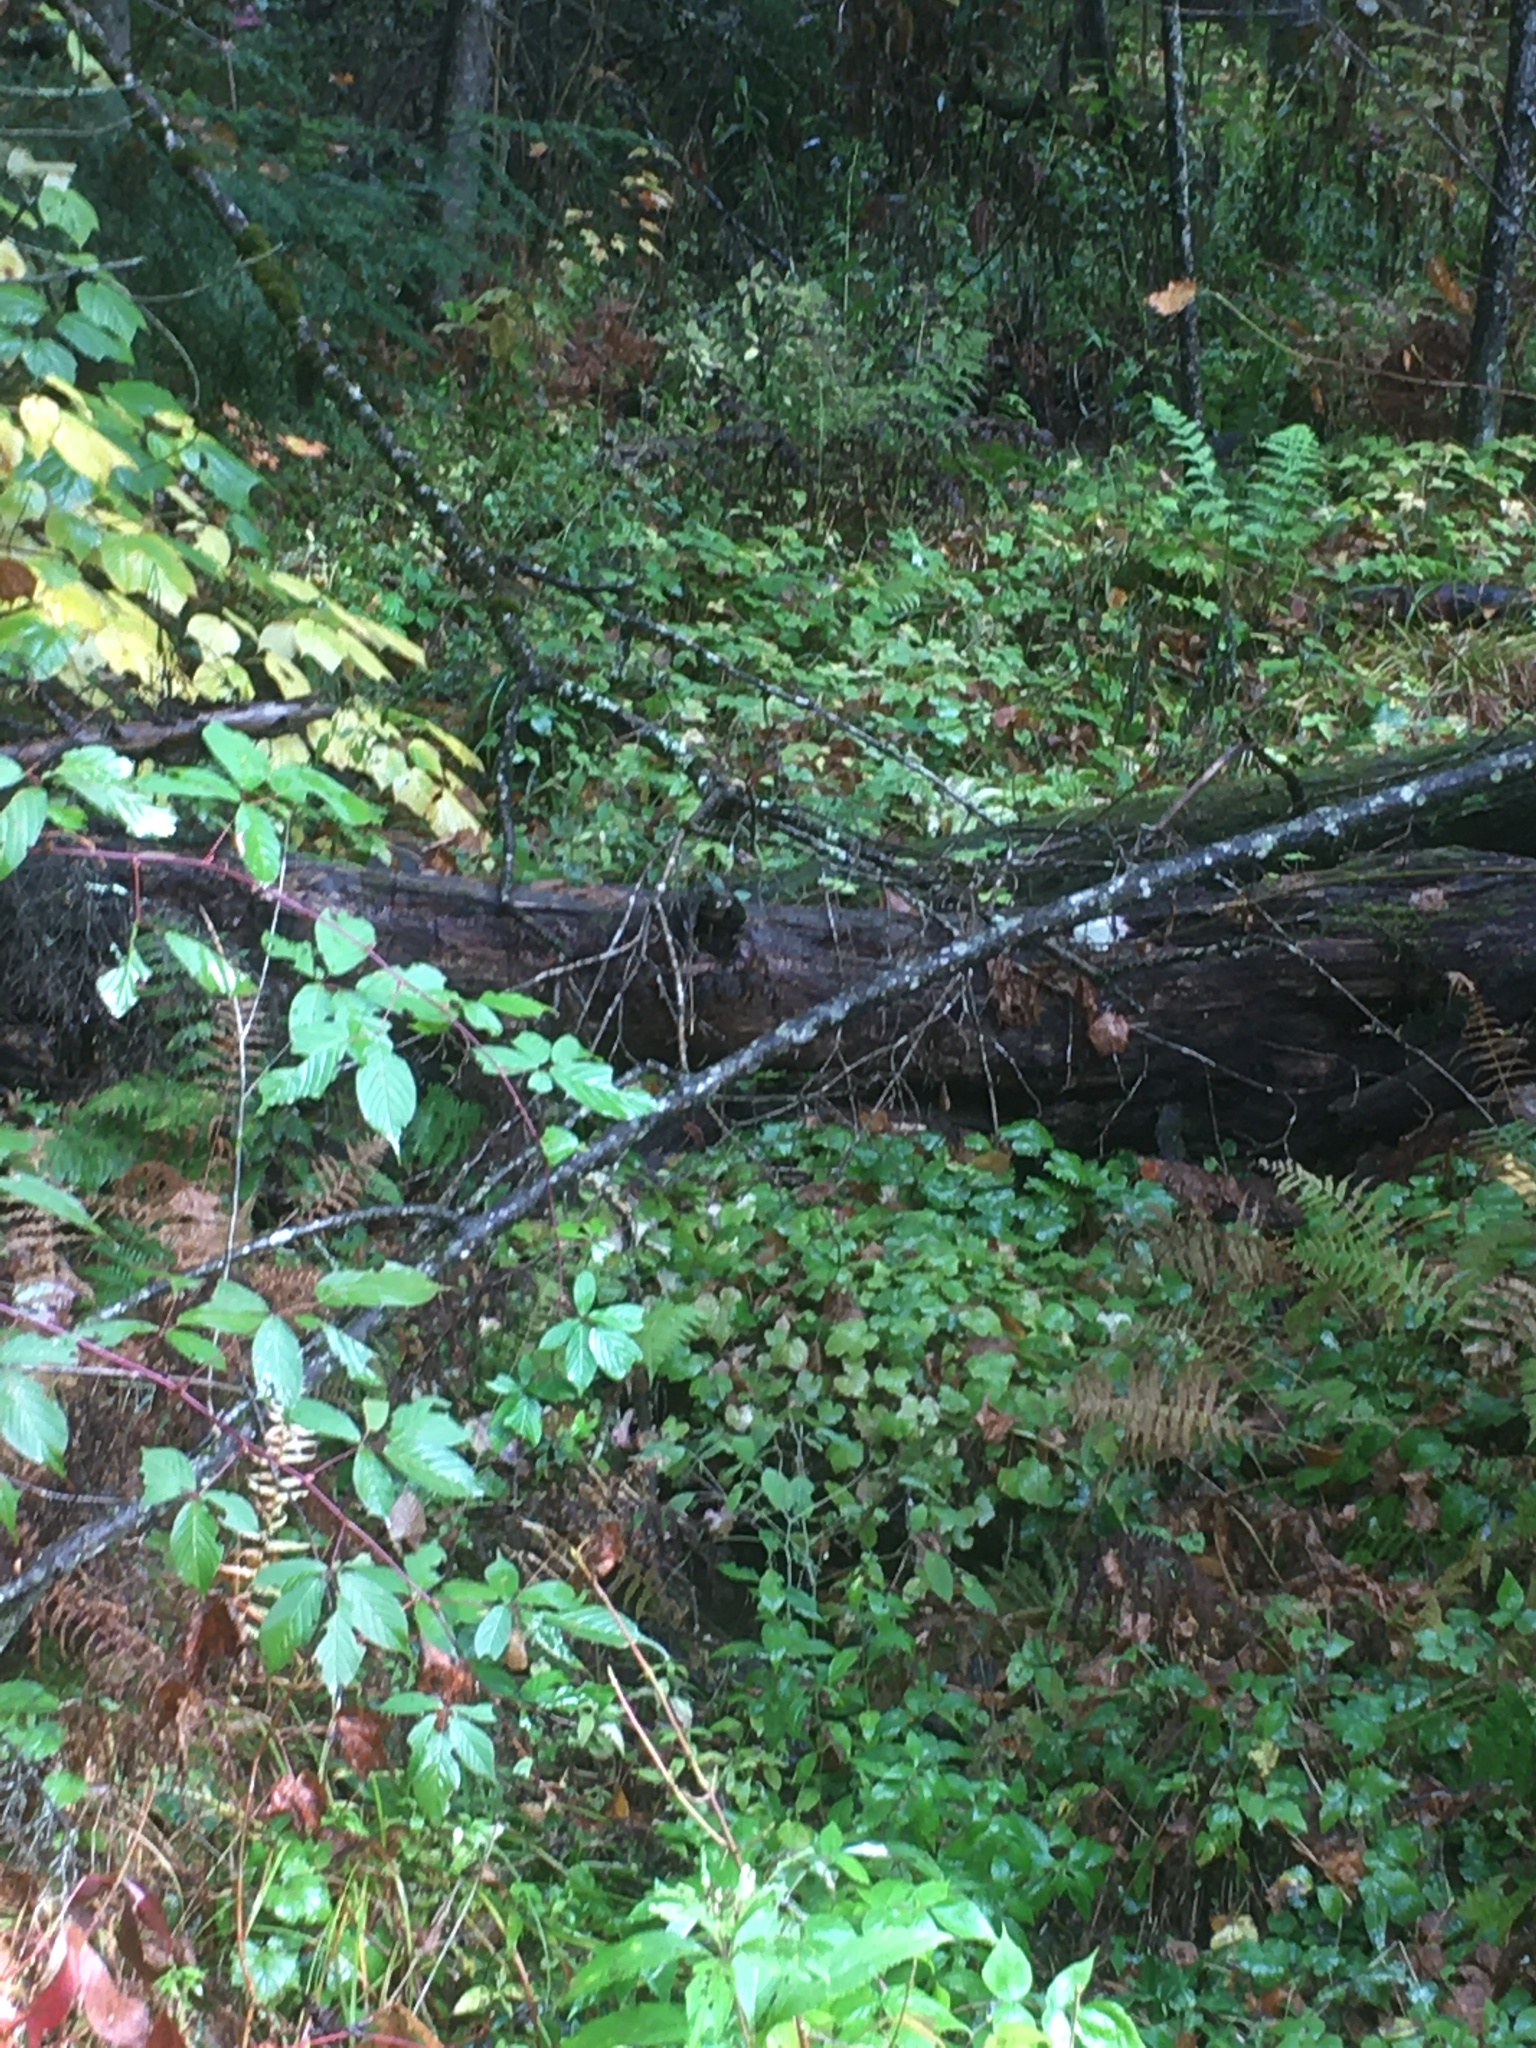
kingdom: Plantae
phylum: Tracheophyta
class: Magnoliopsida
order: Saxifragales
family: Saxifragaceae
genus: Tiarella
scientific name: Tiarella stolonifera
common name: Stoloniferous foamflower
